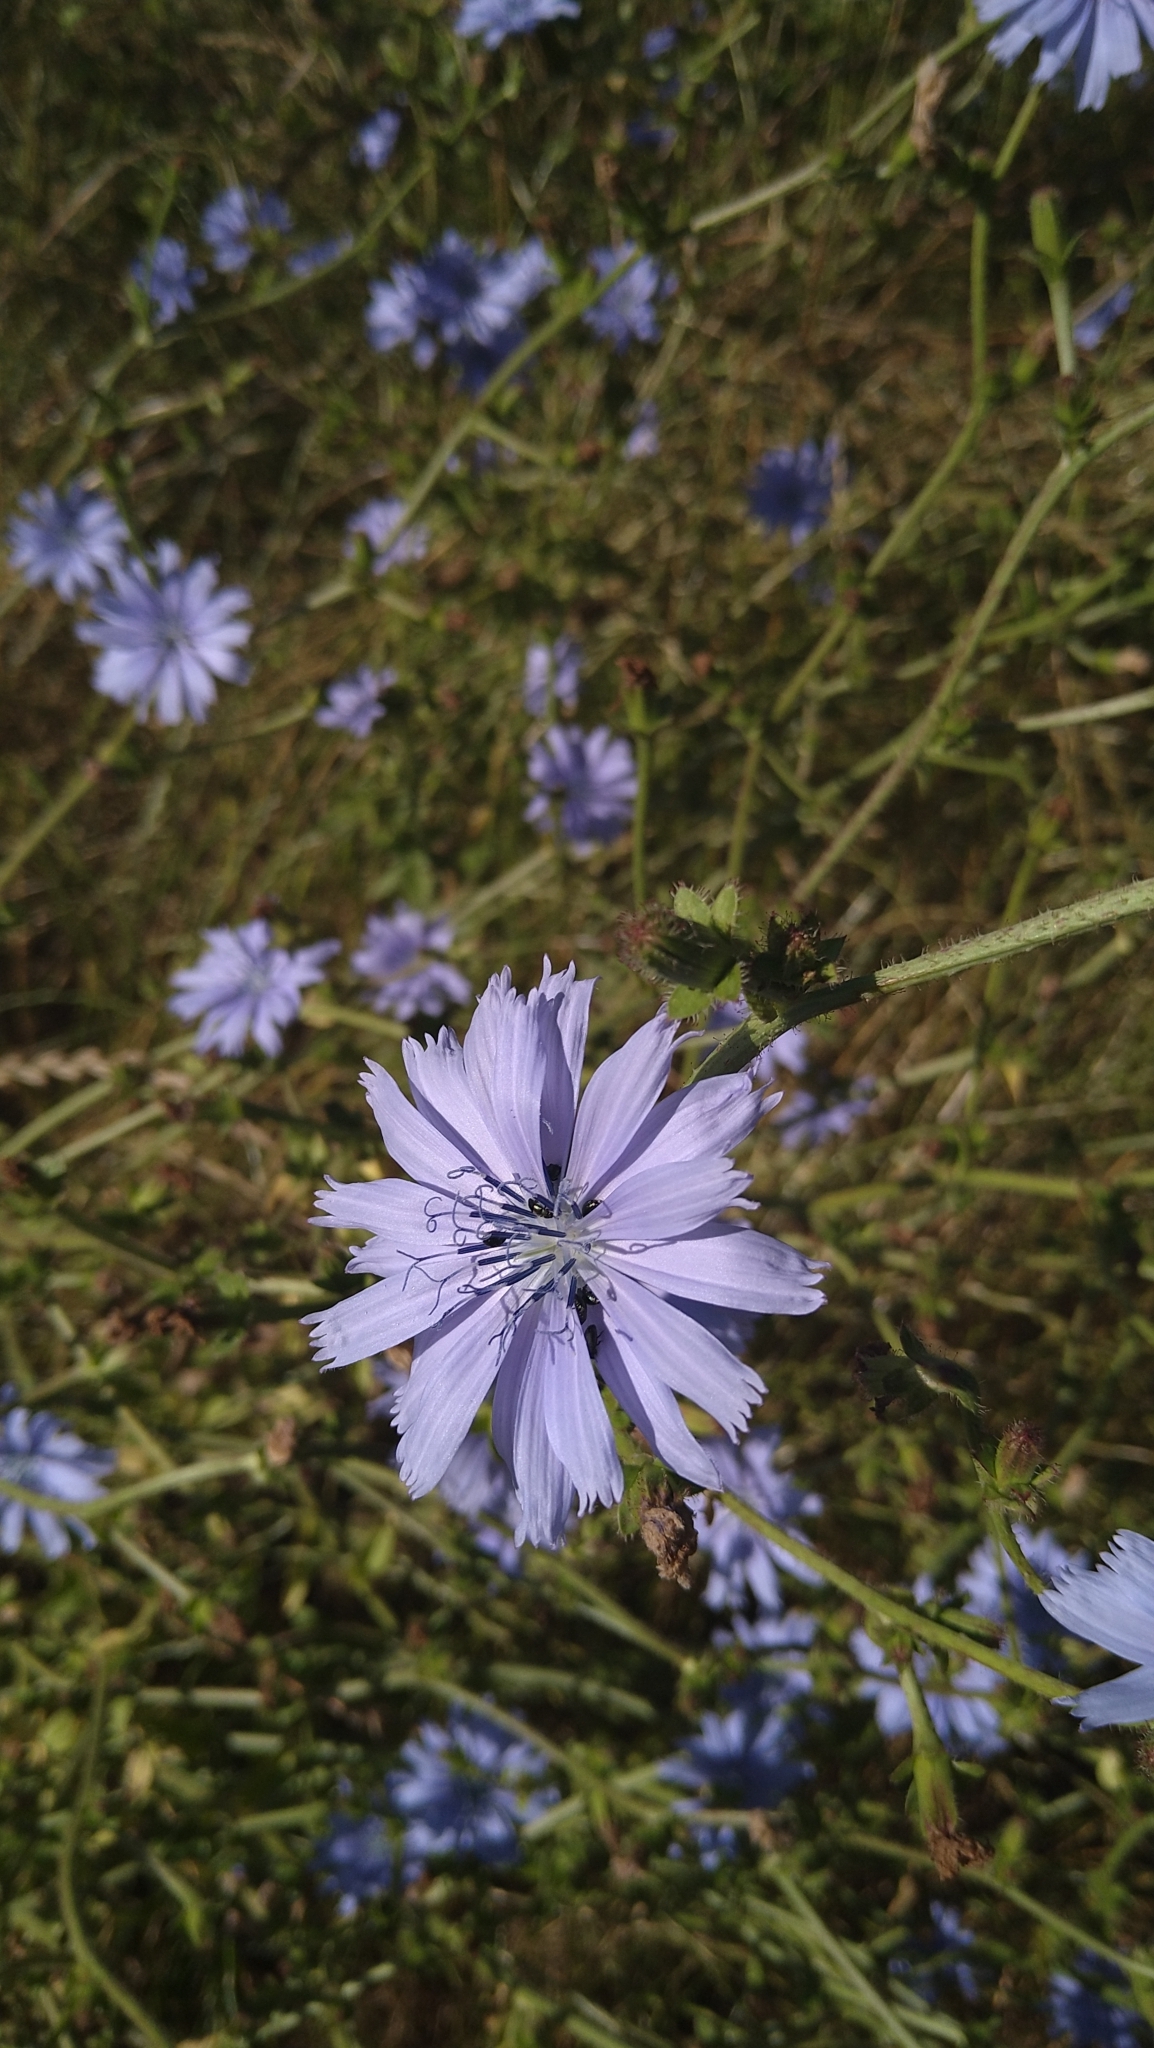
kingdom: Plantae
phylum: Tracheophyta
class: Magnoliopsida
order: Asterales
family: Asteraceae
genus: Cichorium
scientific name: Cichorium intybus
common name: Chicory
